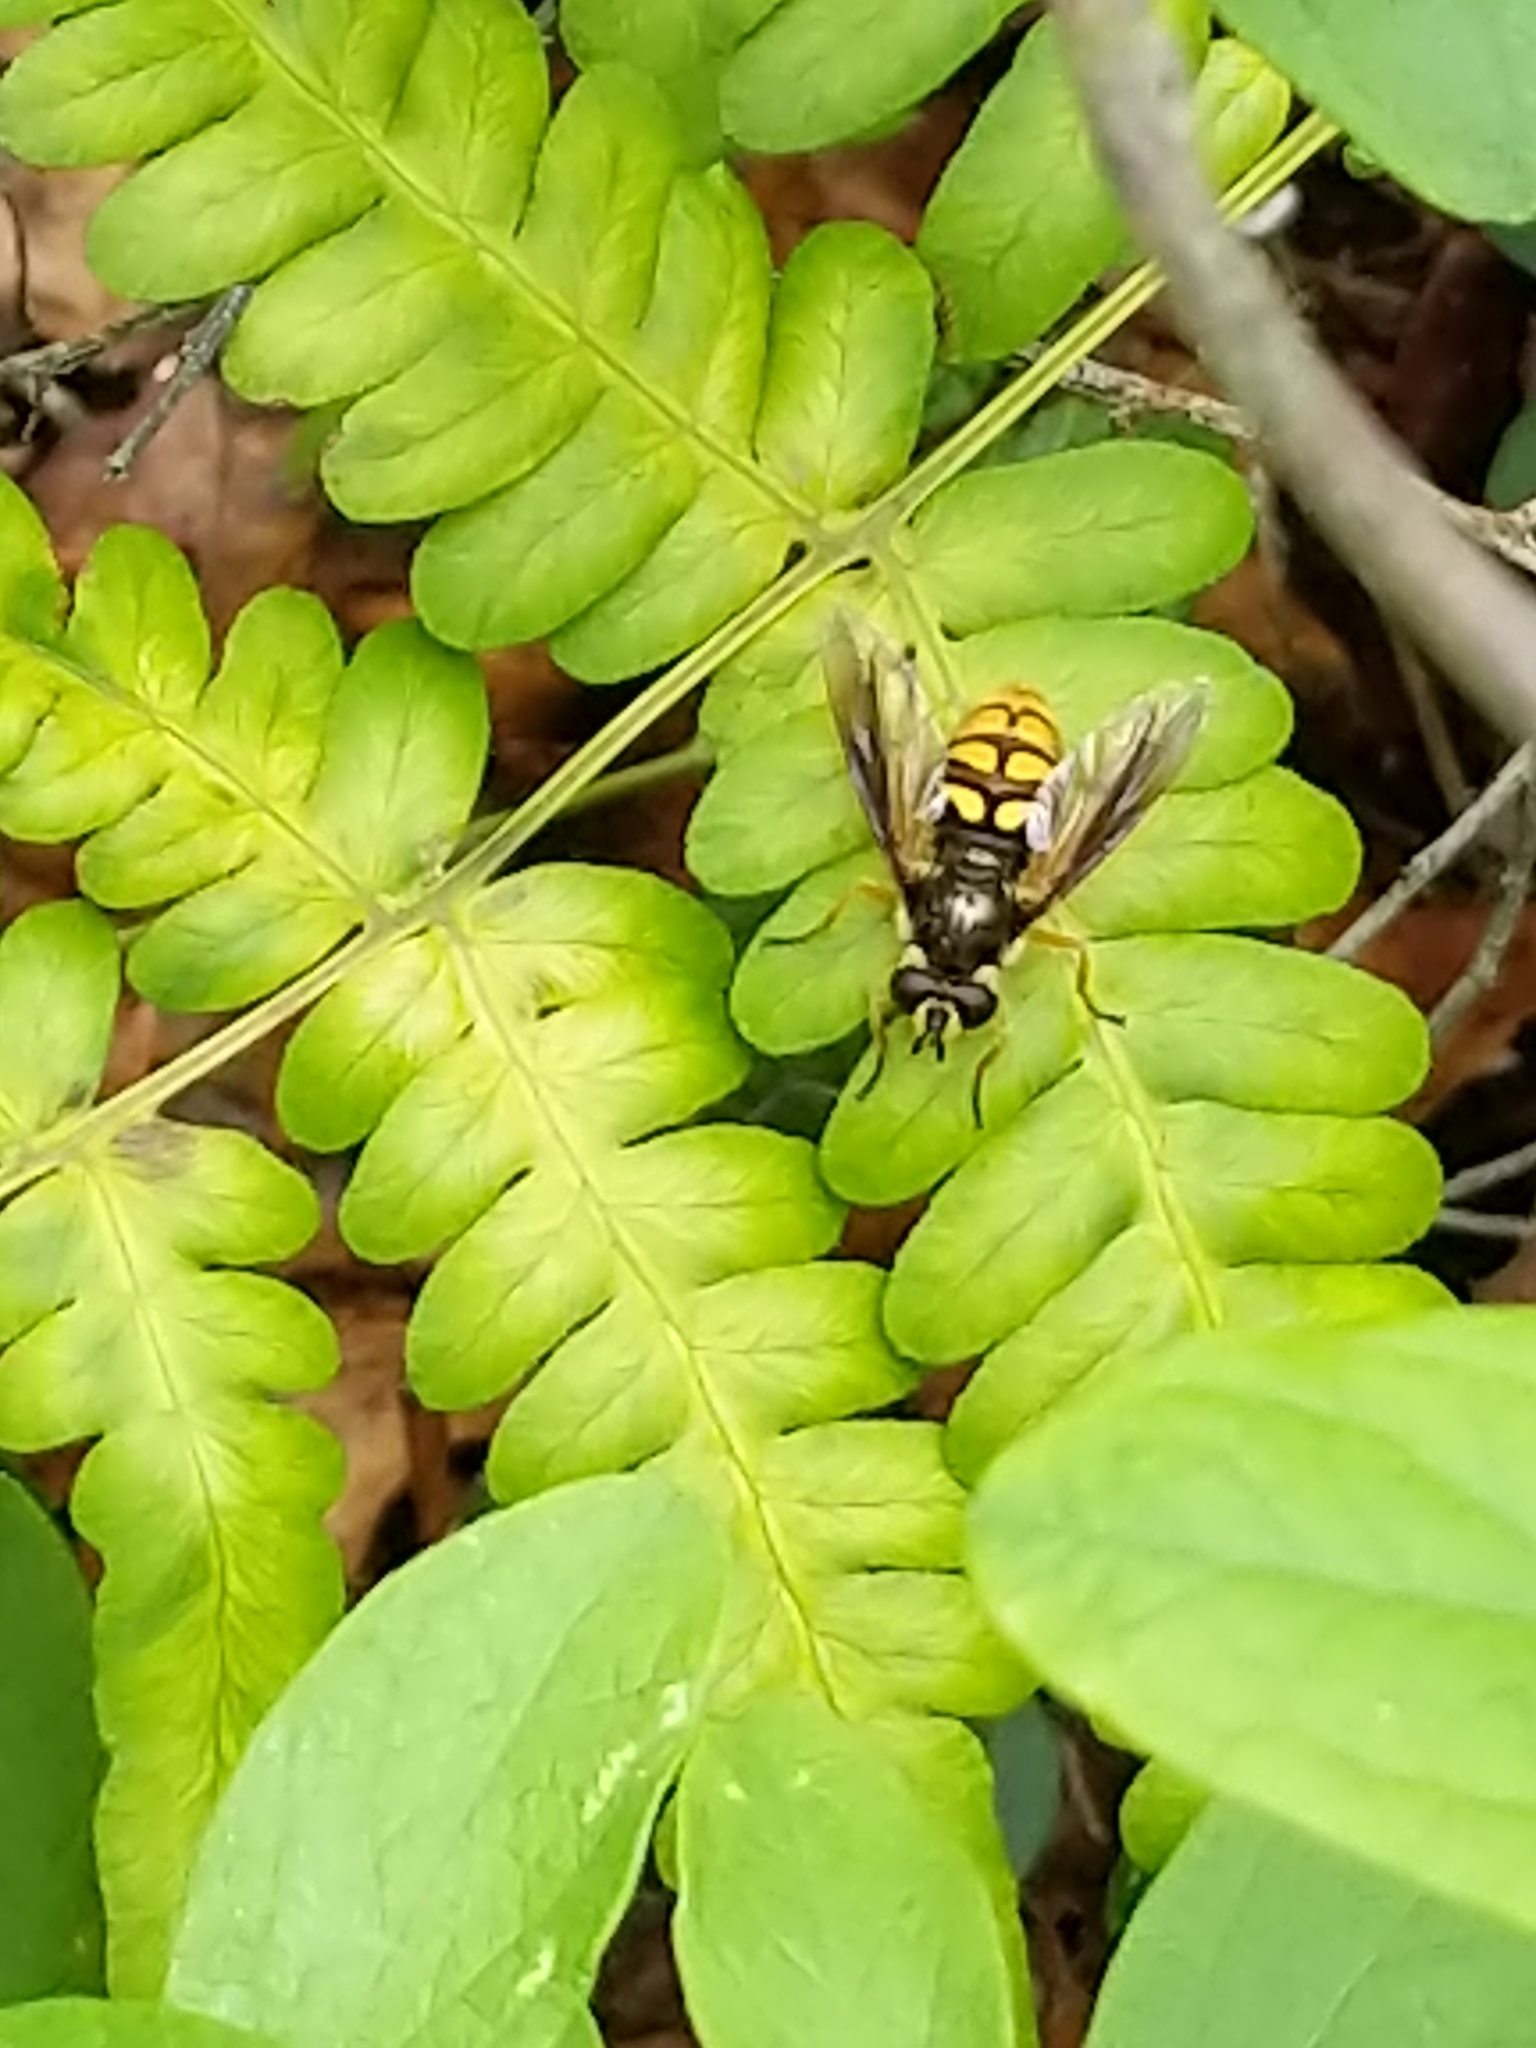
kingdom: Animalia
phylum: Arthropoda
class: Insecta
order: Diptera
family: Syrphidae
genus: Somula
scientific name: Somula decora
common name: Spotted wood fly
